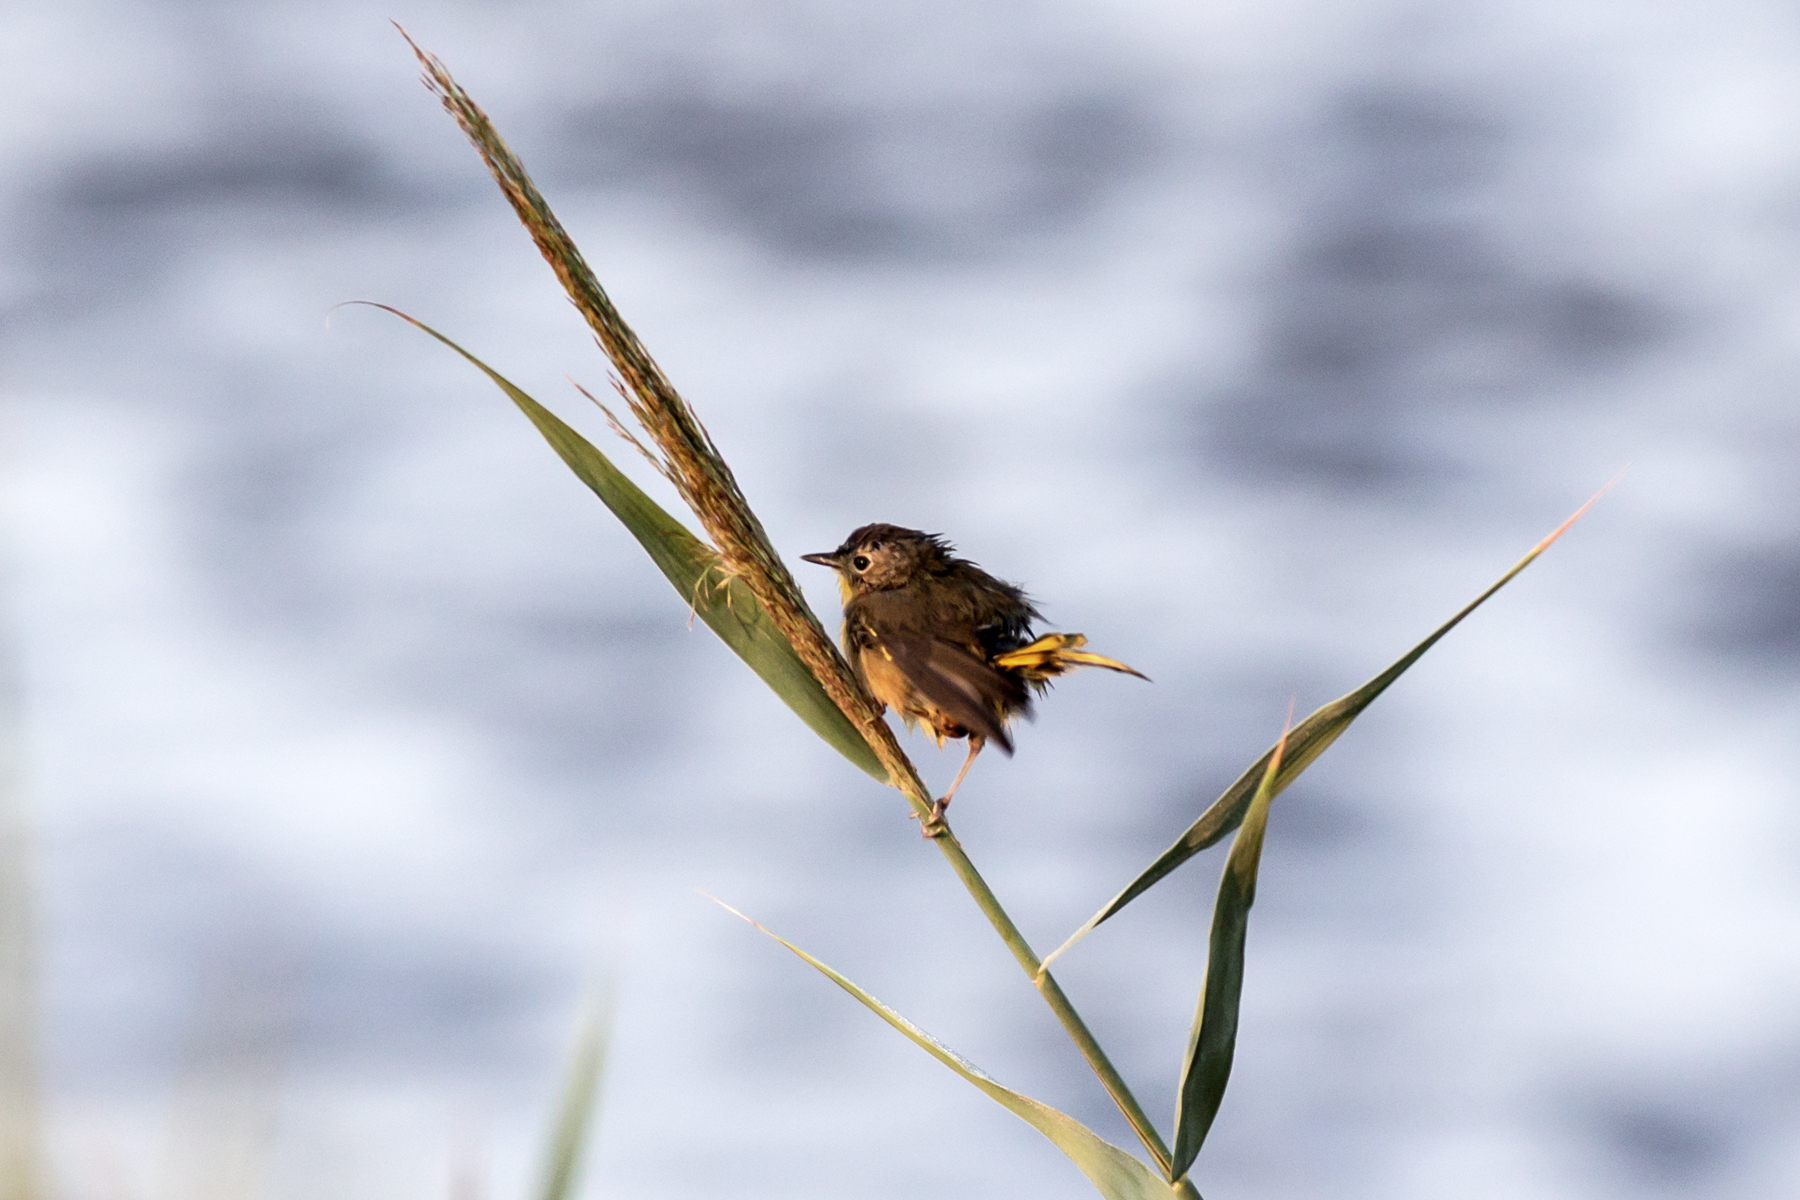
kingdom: Animalia
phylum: Chordata
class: Aves
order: Passeriformes
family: Parulidae
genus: Geothlypis
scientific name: Geothlypis trichas
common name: Common yellowthroat
